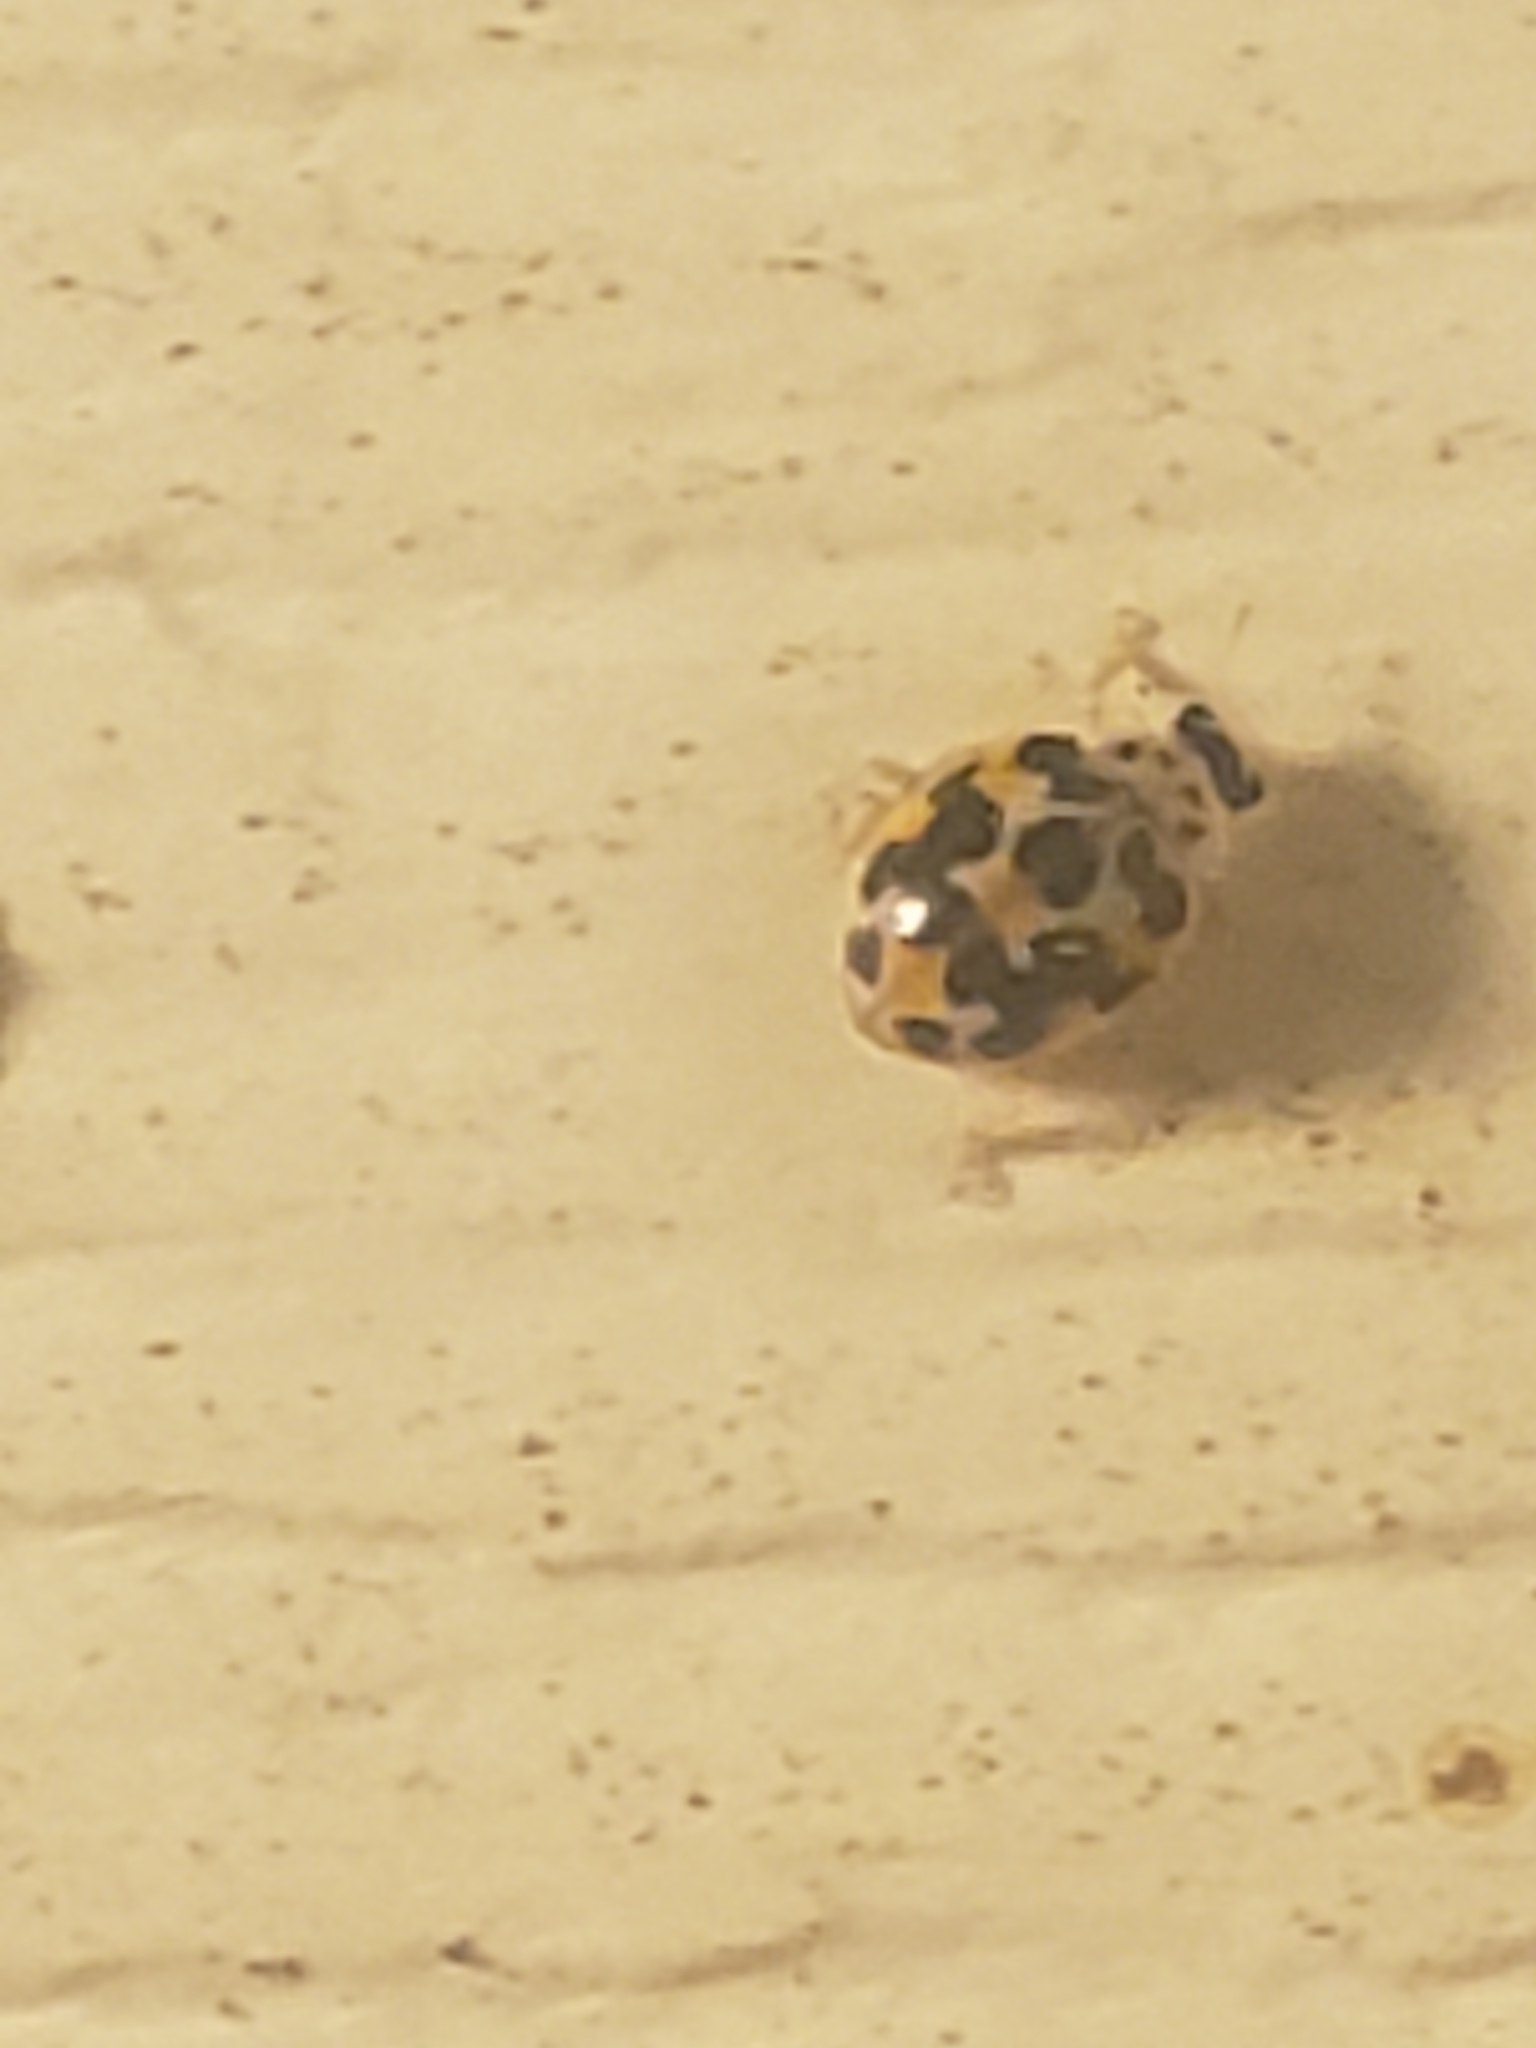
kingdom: Animalia
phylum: Arthropoda
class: Insecta
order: Coleoptera
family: Coccinellidae
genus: Psyllobora
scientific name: Psyllobora vigintimaculata
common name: Ladybird beetle
